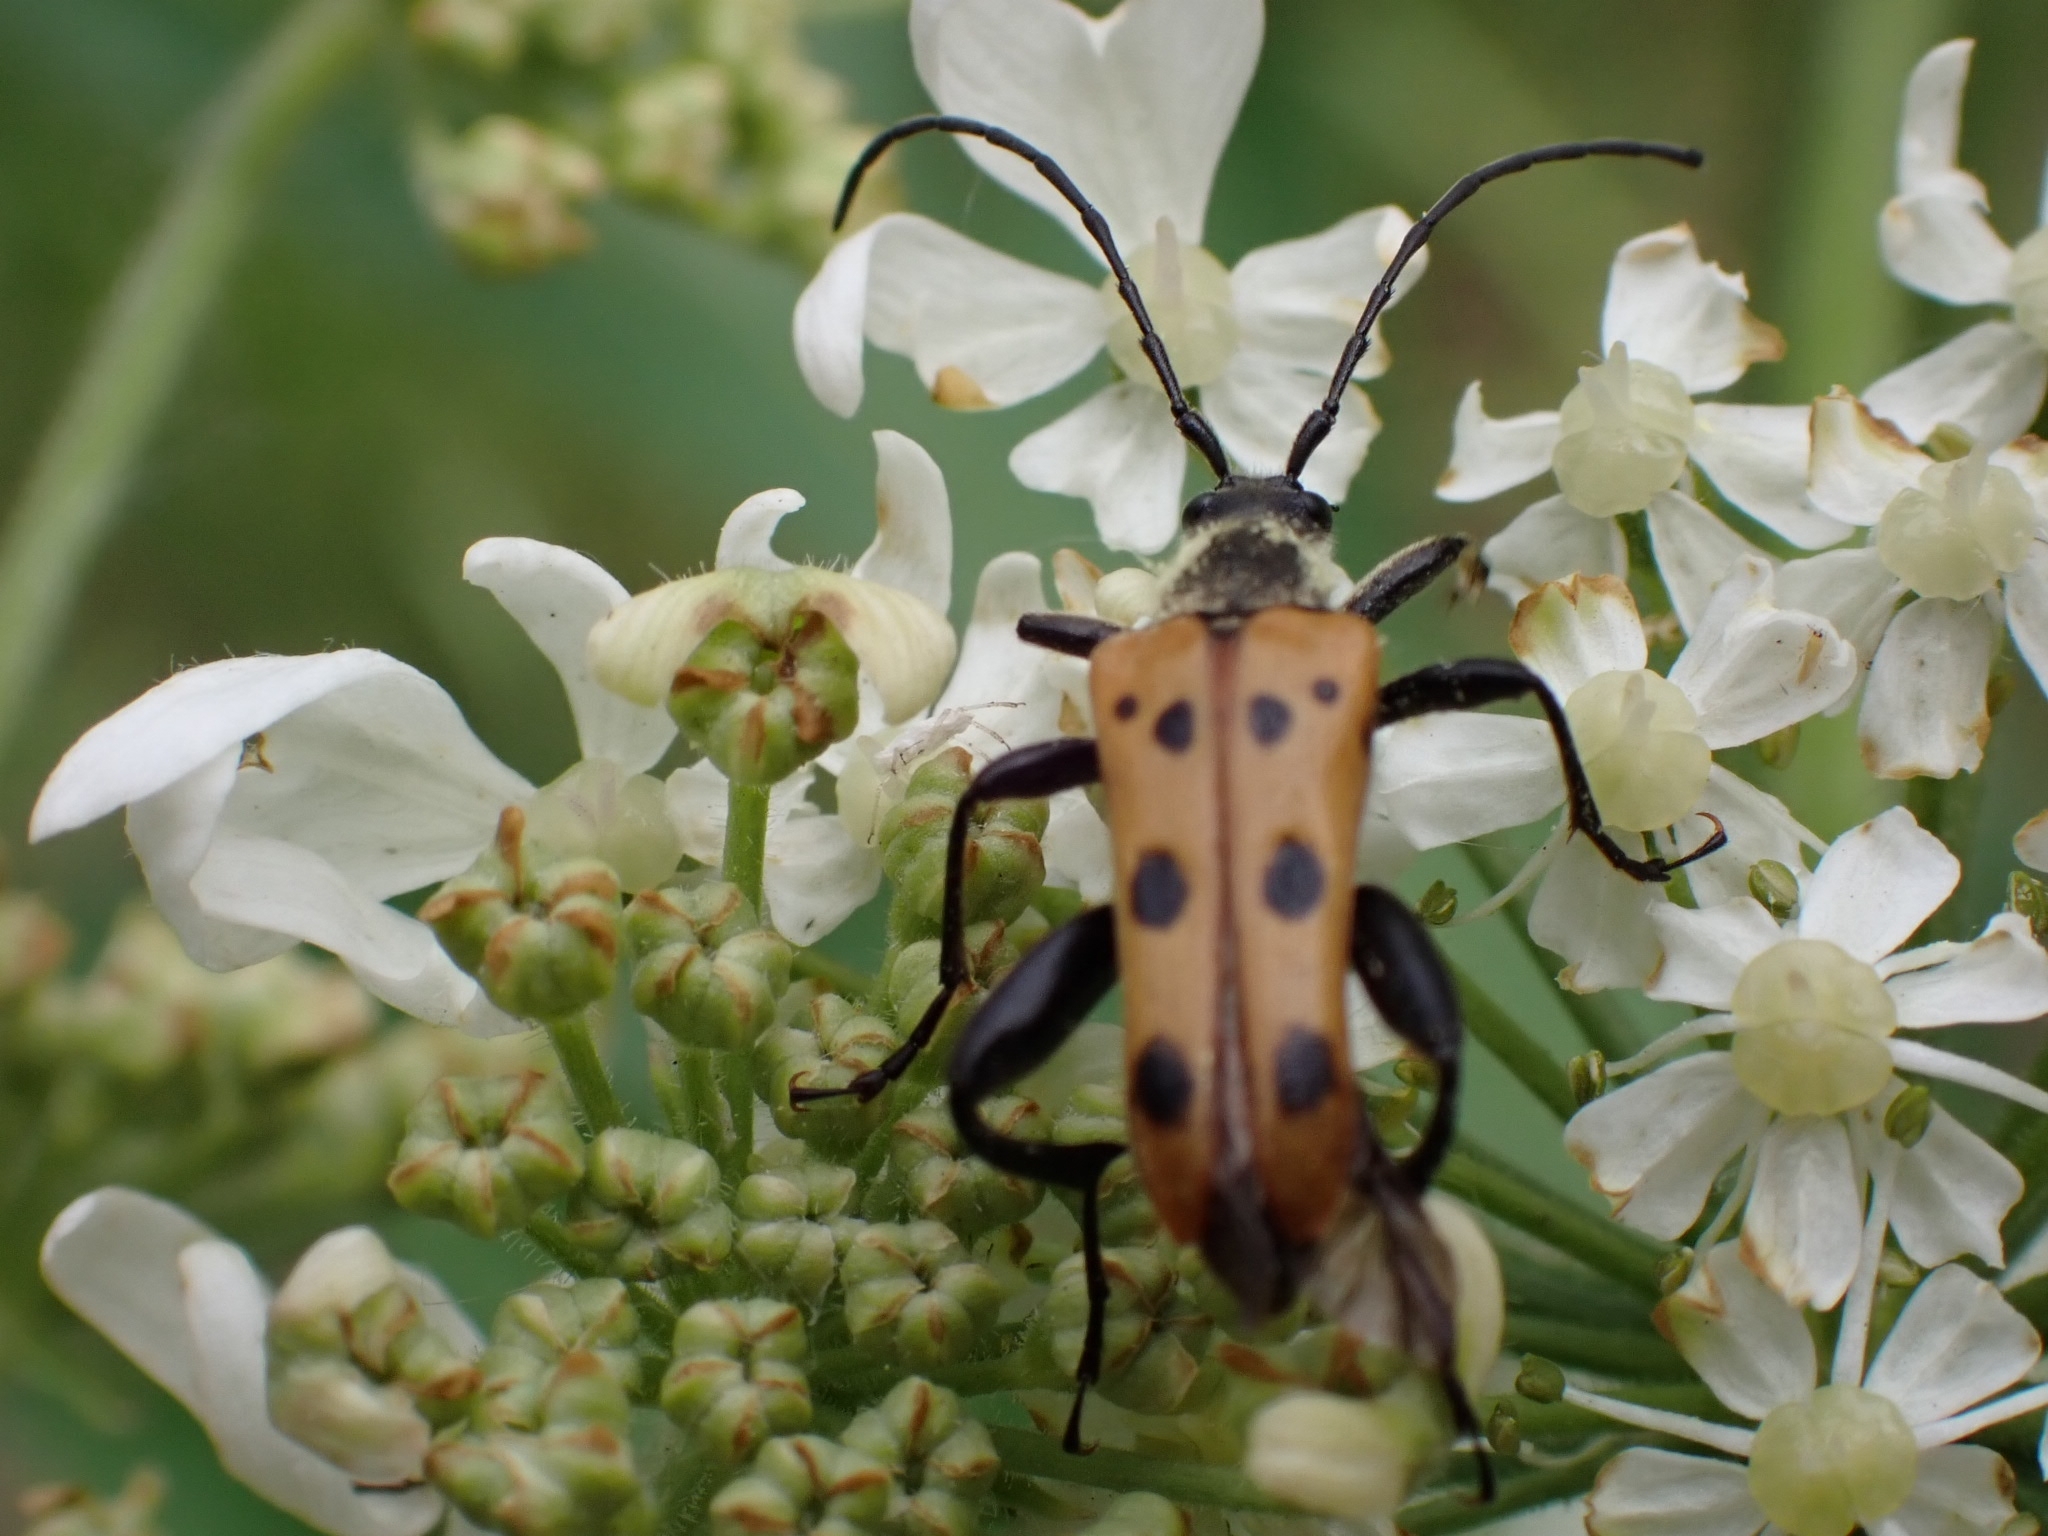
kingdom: Animalia
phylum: Arthropoda
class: Insecta
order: Coleoptera
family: Cerambycidae
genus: Oedecnema
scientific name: Oedecnema gebleri
